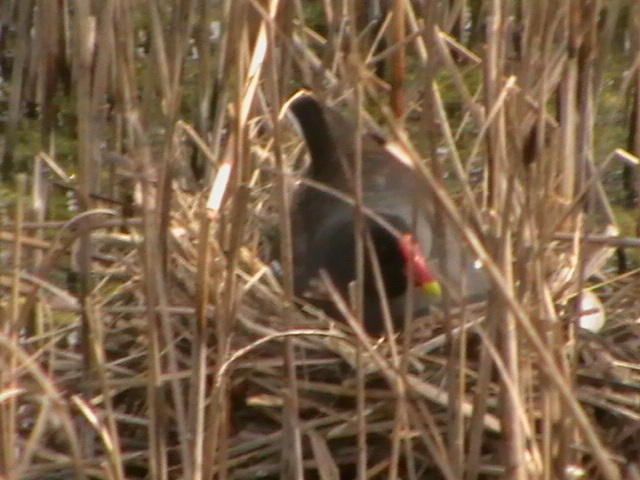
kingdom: Animalia
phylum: Chordata
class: Aves
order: Gruiformes
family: Rallidae
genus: Gallinula
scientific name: Gallinula chloropus
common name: Common moorhen
